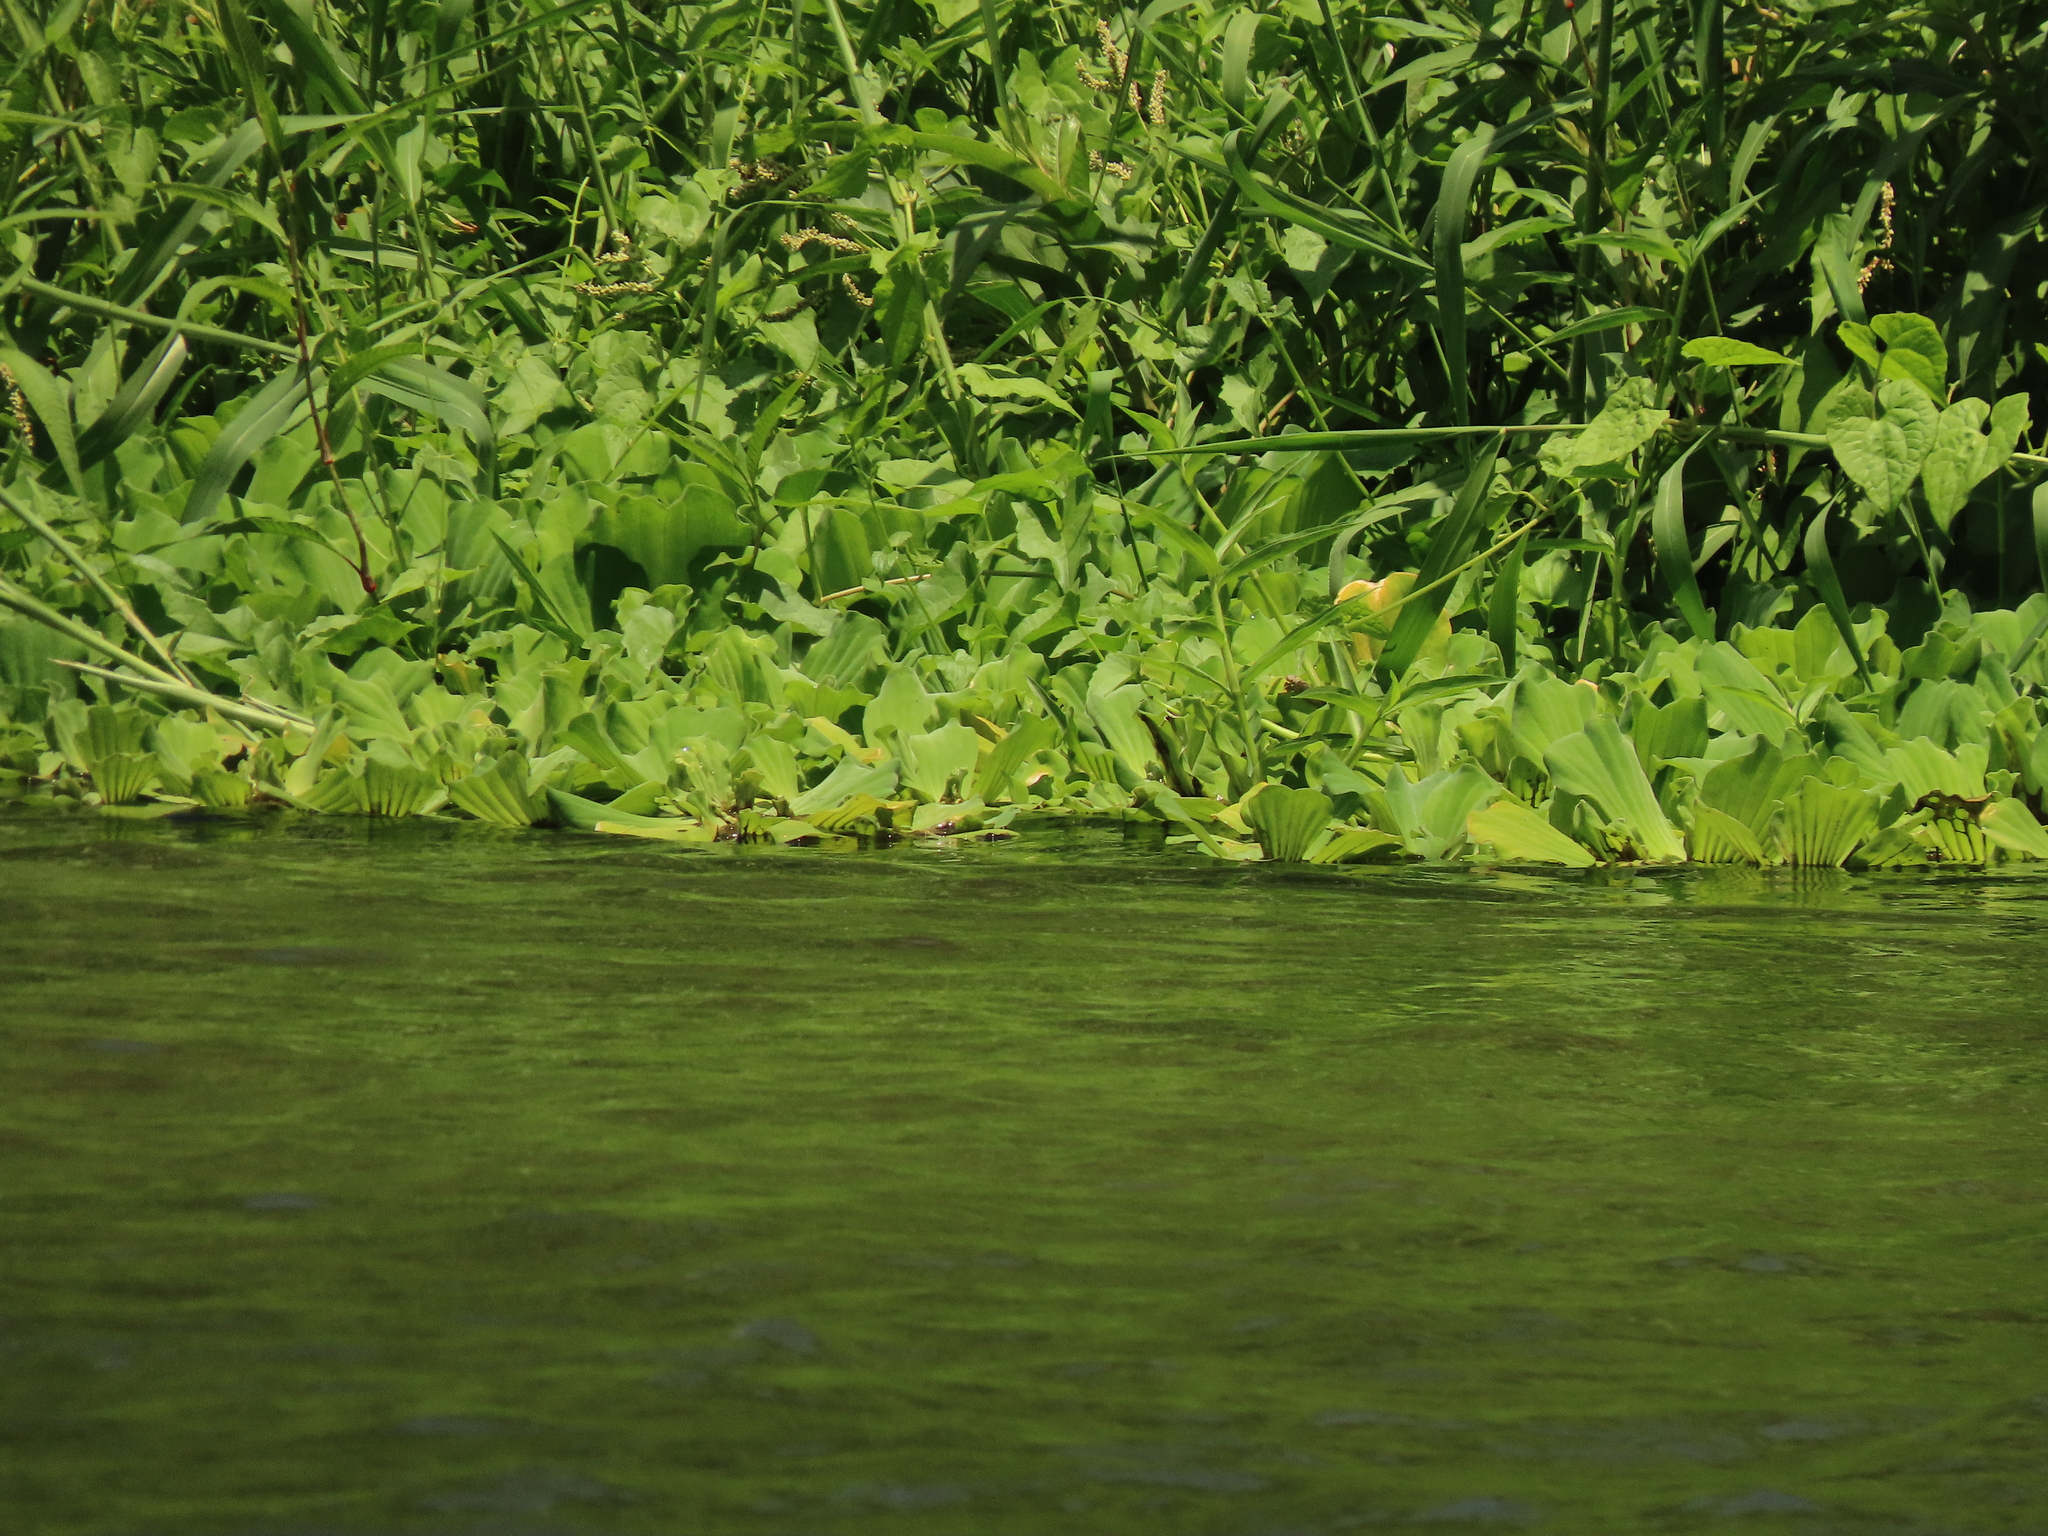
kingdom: Plantae
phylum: Tracheophyta
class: Liliopsida
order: Alismatales
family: Araceae
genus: Pistia
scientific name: Pistia stratiotes
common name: Water lettuce
